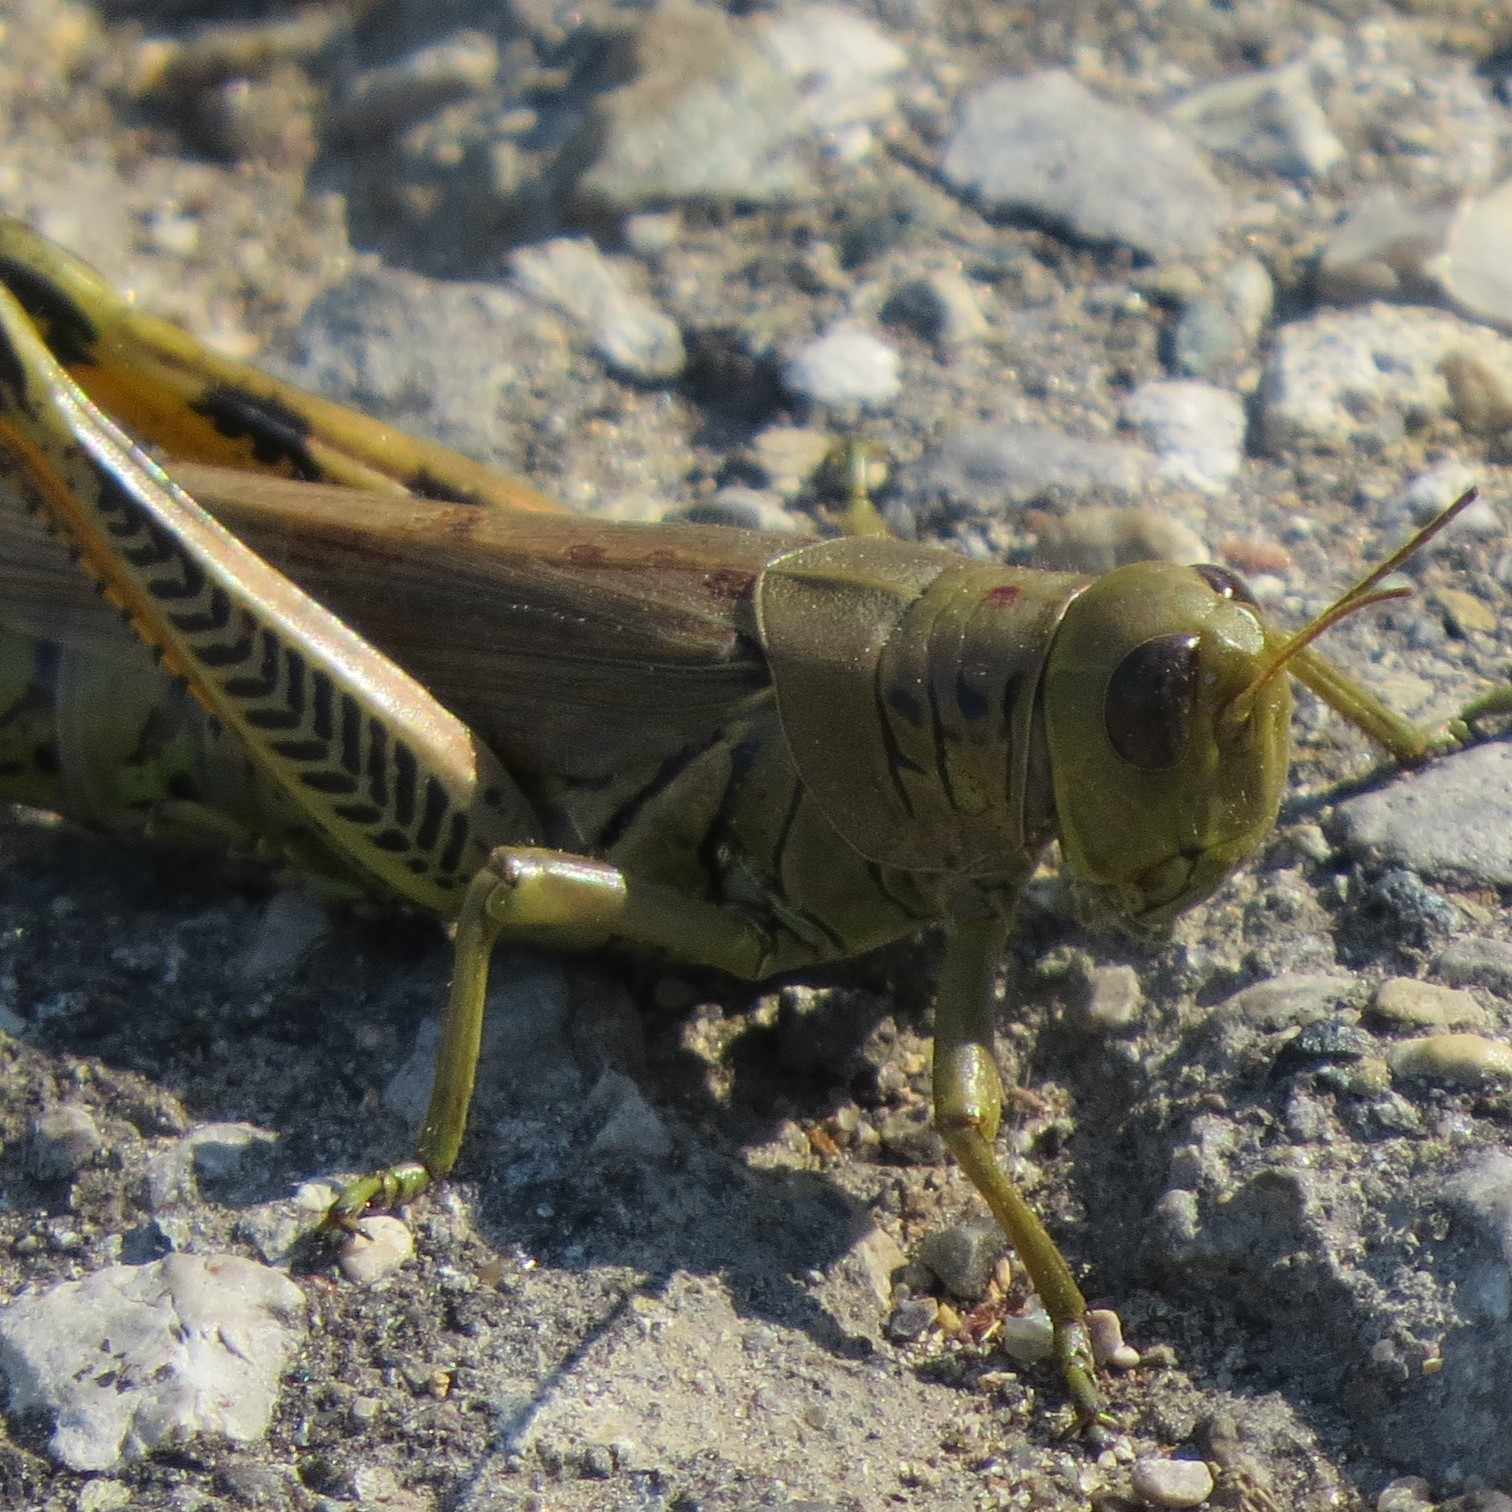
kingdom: Animalia
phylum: Arthropoda
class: Insecta
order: Orthoptera
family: Acrididae
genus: Melanoplus
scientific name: Melanoplus differentialis
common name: Differential grasshopper
